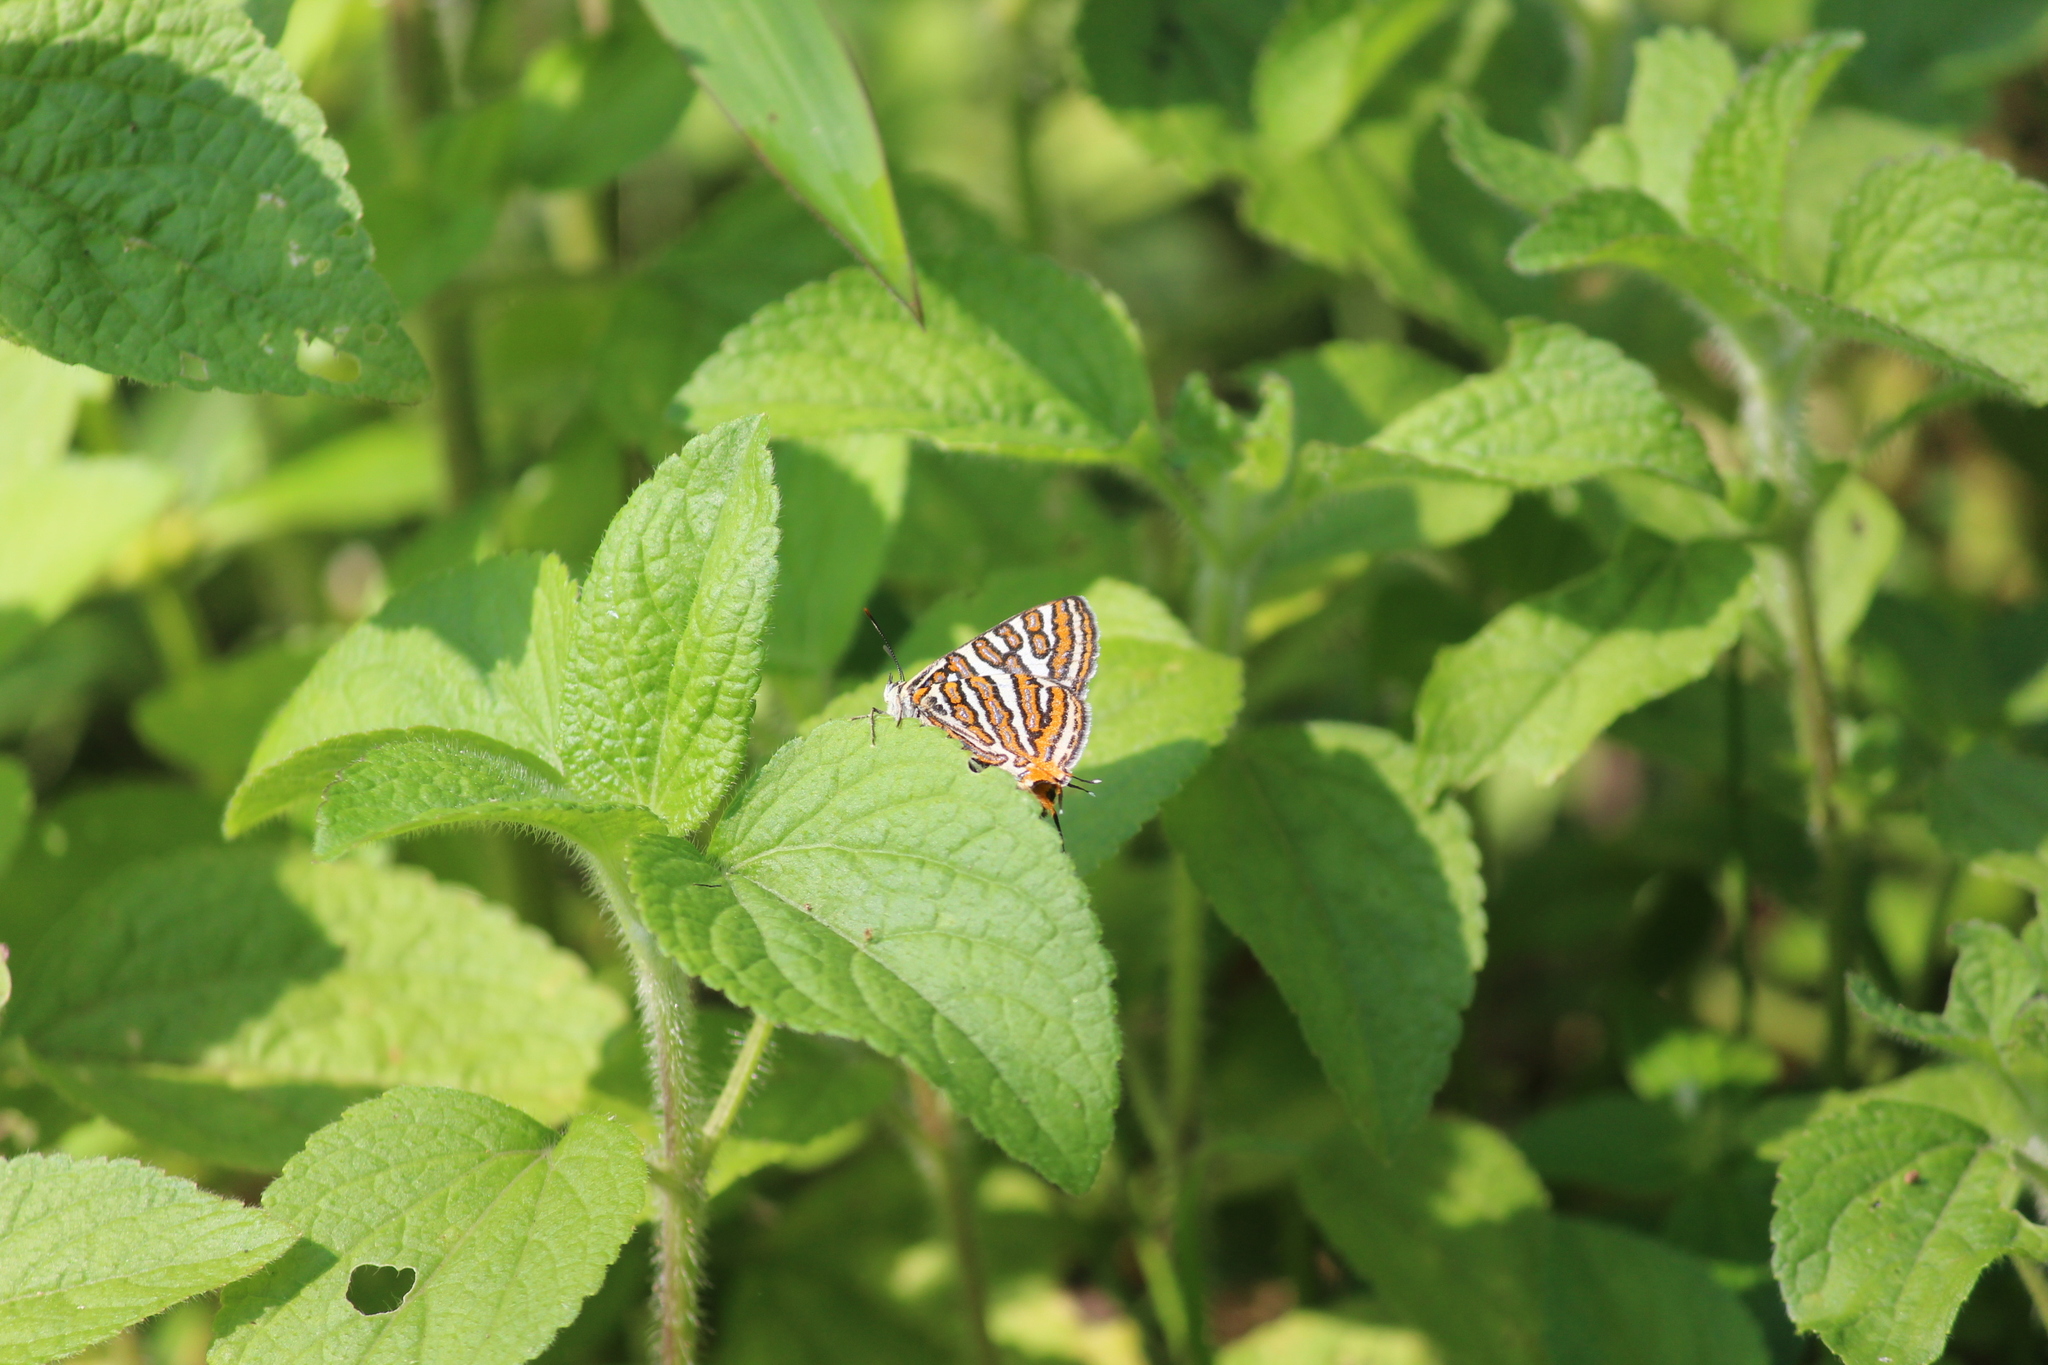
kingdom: Animalia
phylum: Arthropoda
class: Insecta
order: Lepidoptera
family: Lycaenidae
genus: Cigaritis
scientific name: Cigaritis vulcanus
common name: Common silverline
